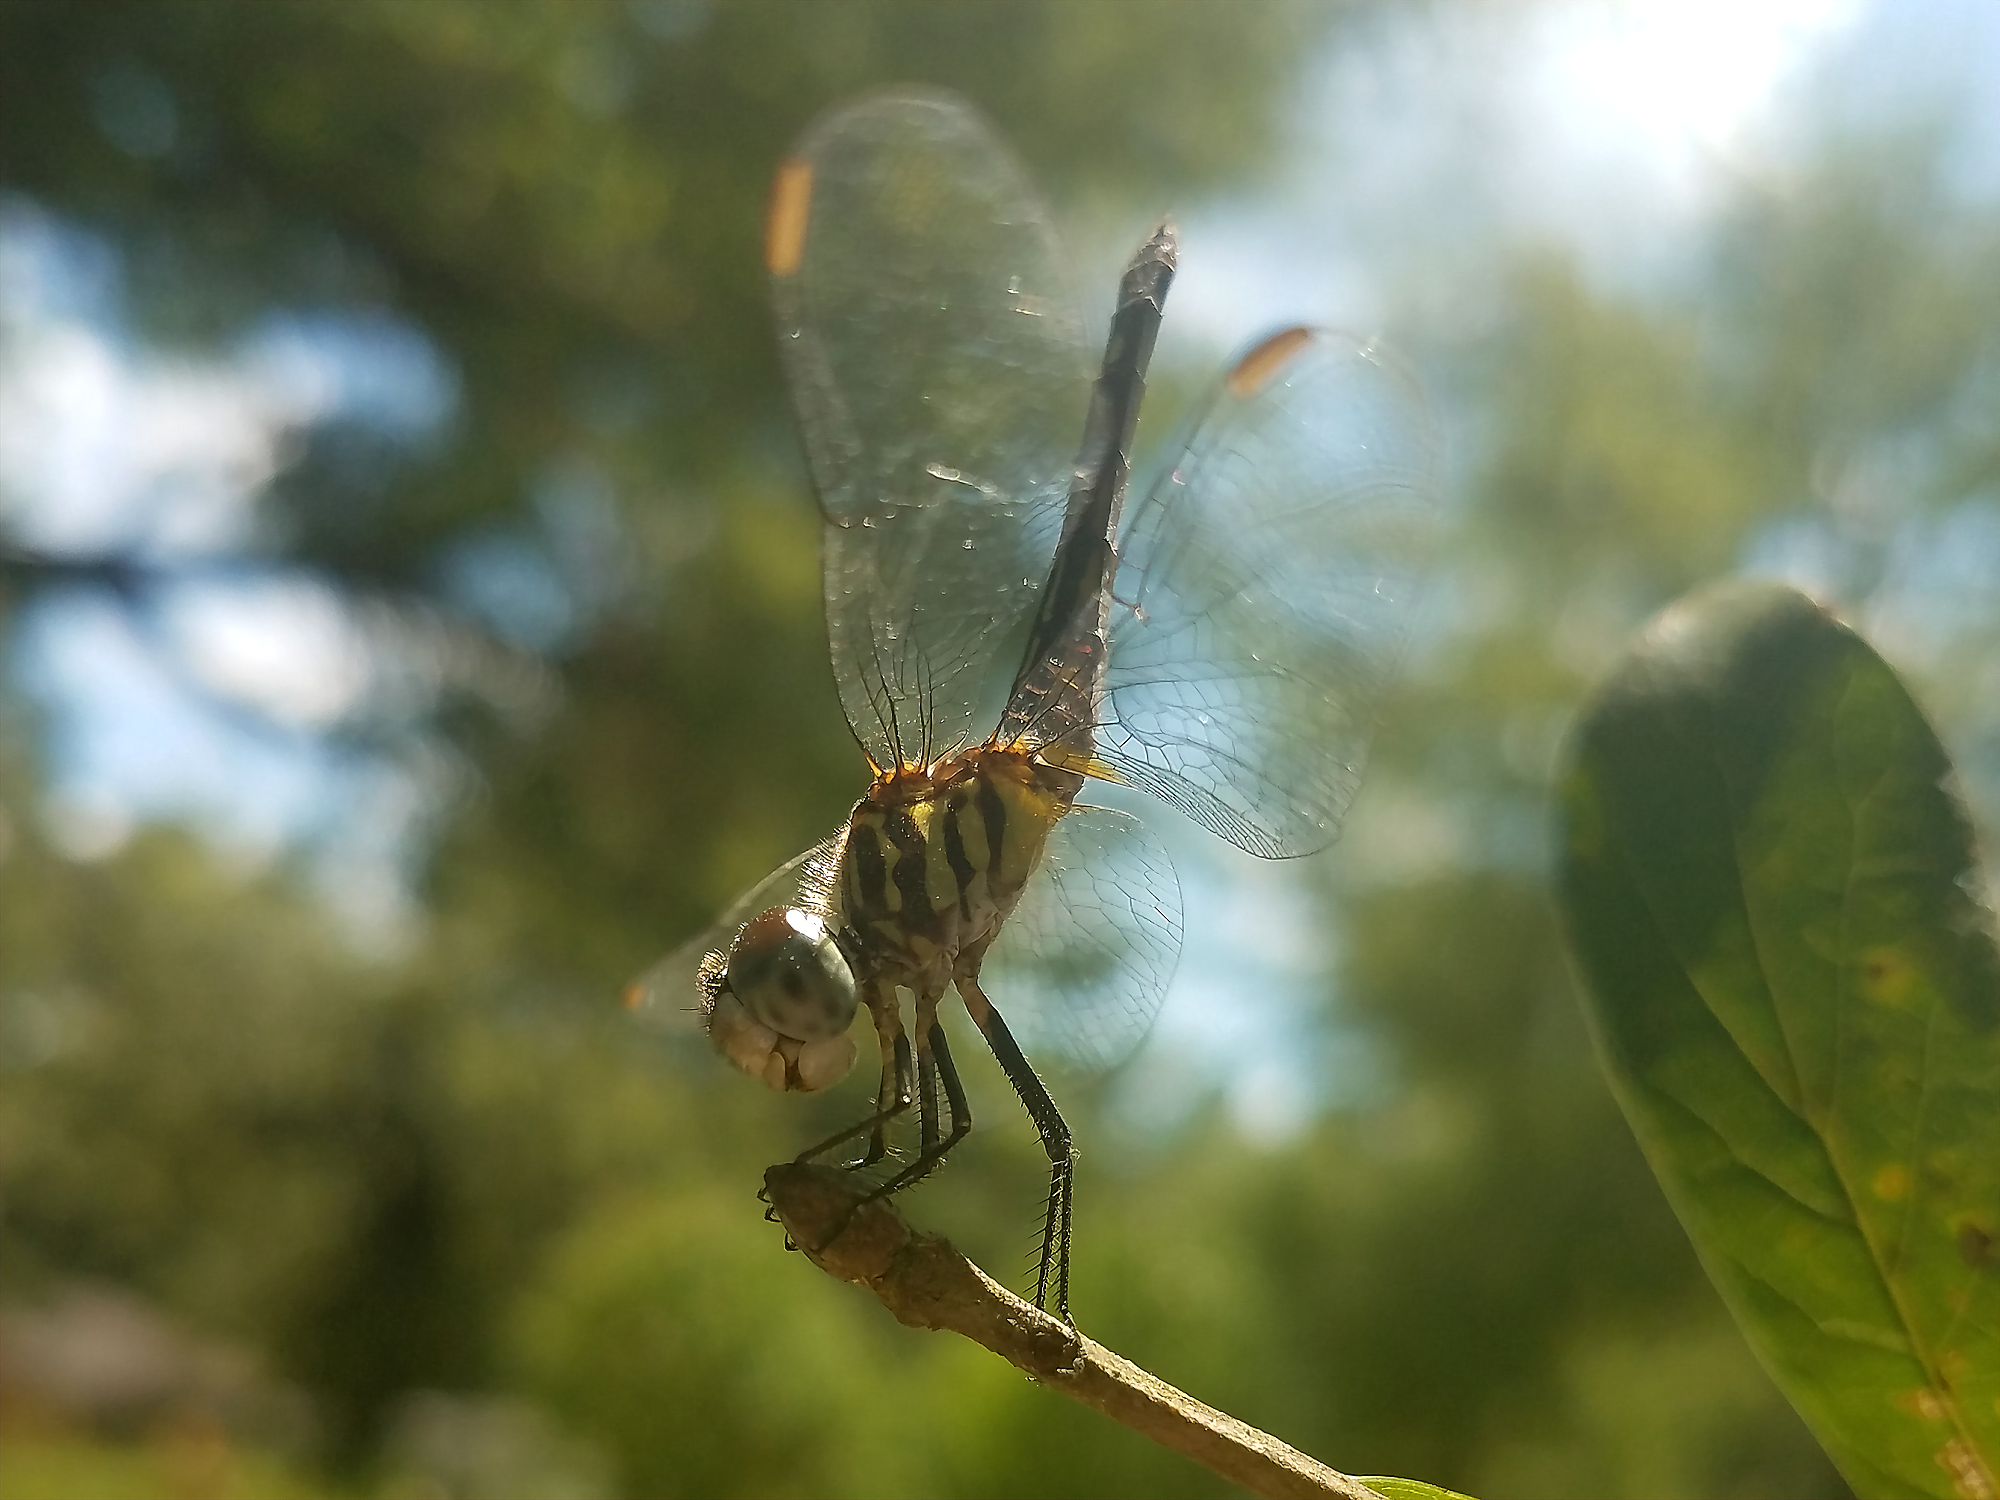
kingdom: Animalia
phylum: Arthropoda
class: Insecta
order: Odonata
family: Libellulidae
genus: Pachydiplax
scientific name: Pachydiplax longipennis
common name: Blue dasher
